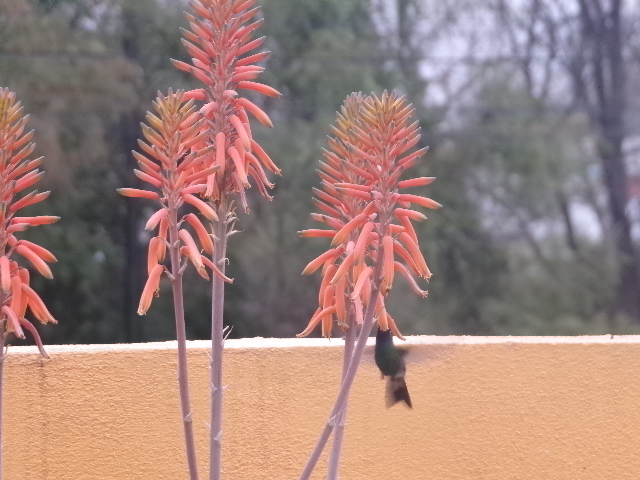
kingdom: Animalia
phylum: Chordata
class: Aves
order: Apodiformes
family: Trochilidae
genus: Cynanthus
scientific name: Cynanthus latirostris
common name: Broad-billed hummingbird
